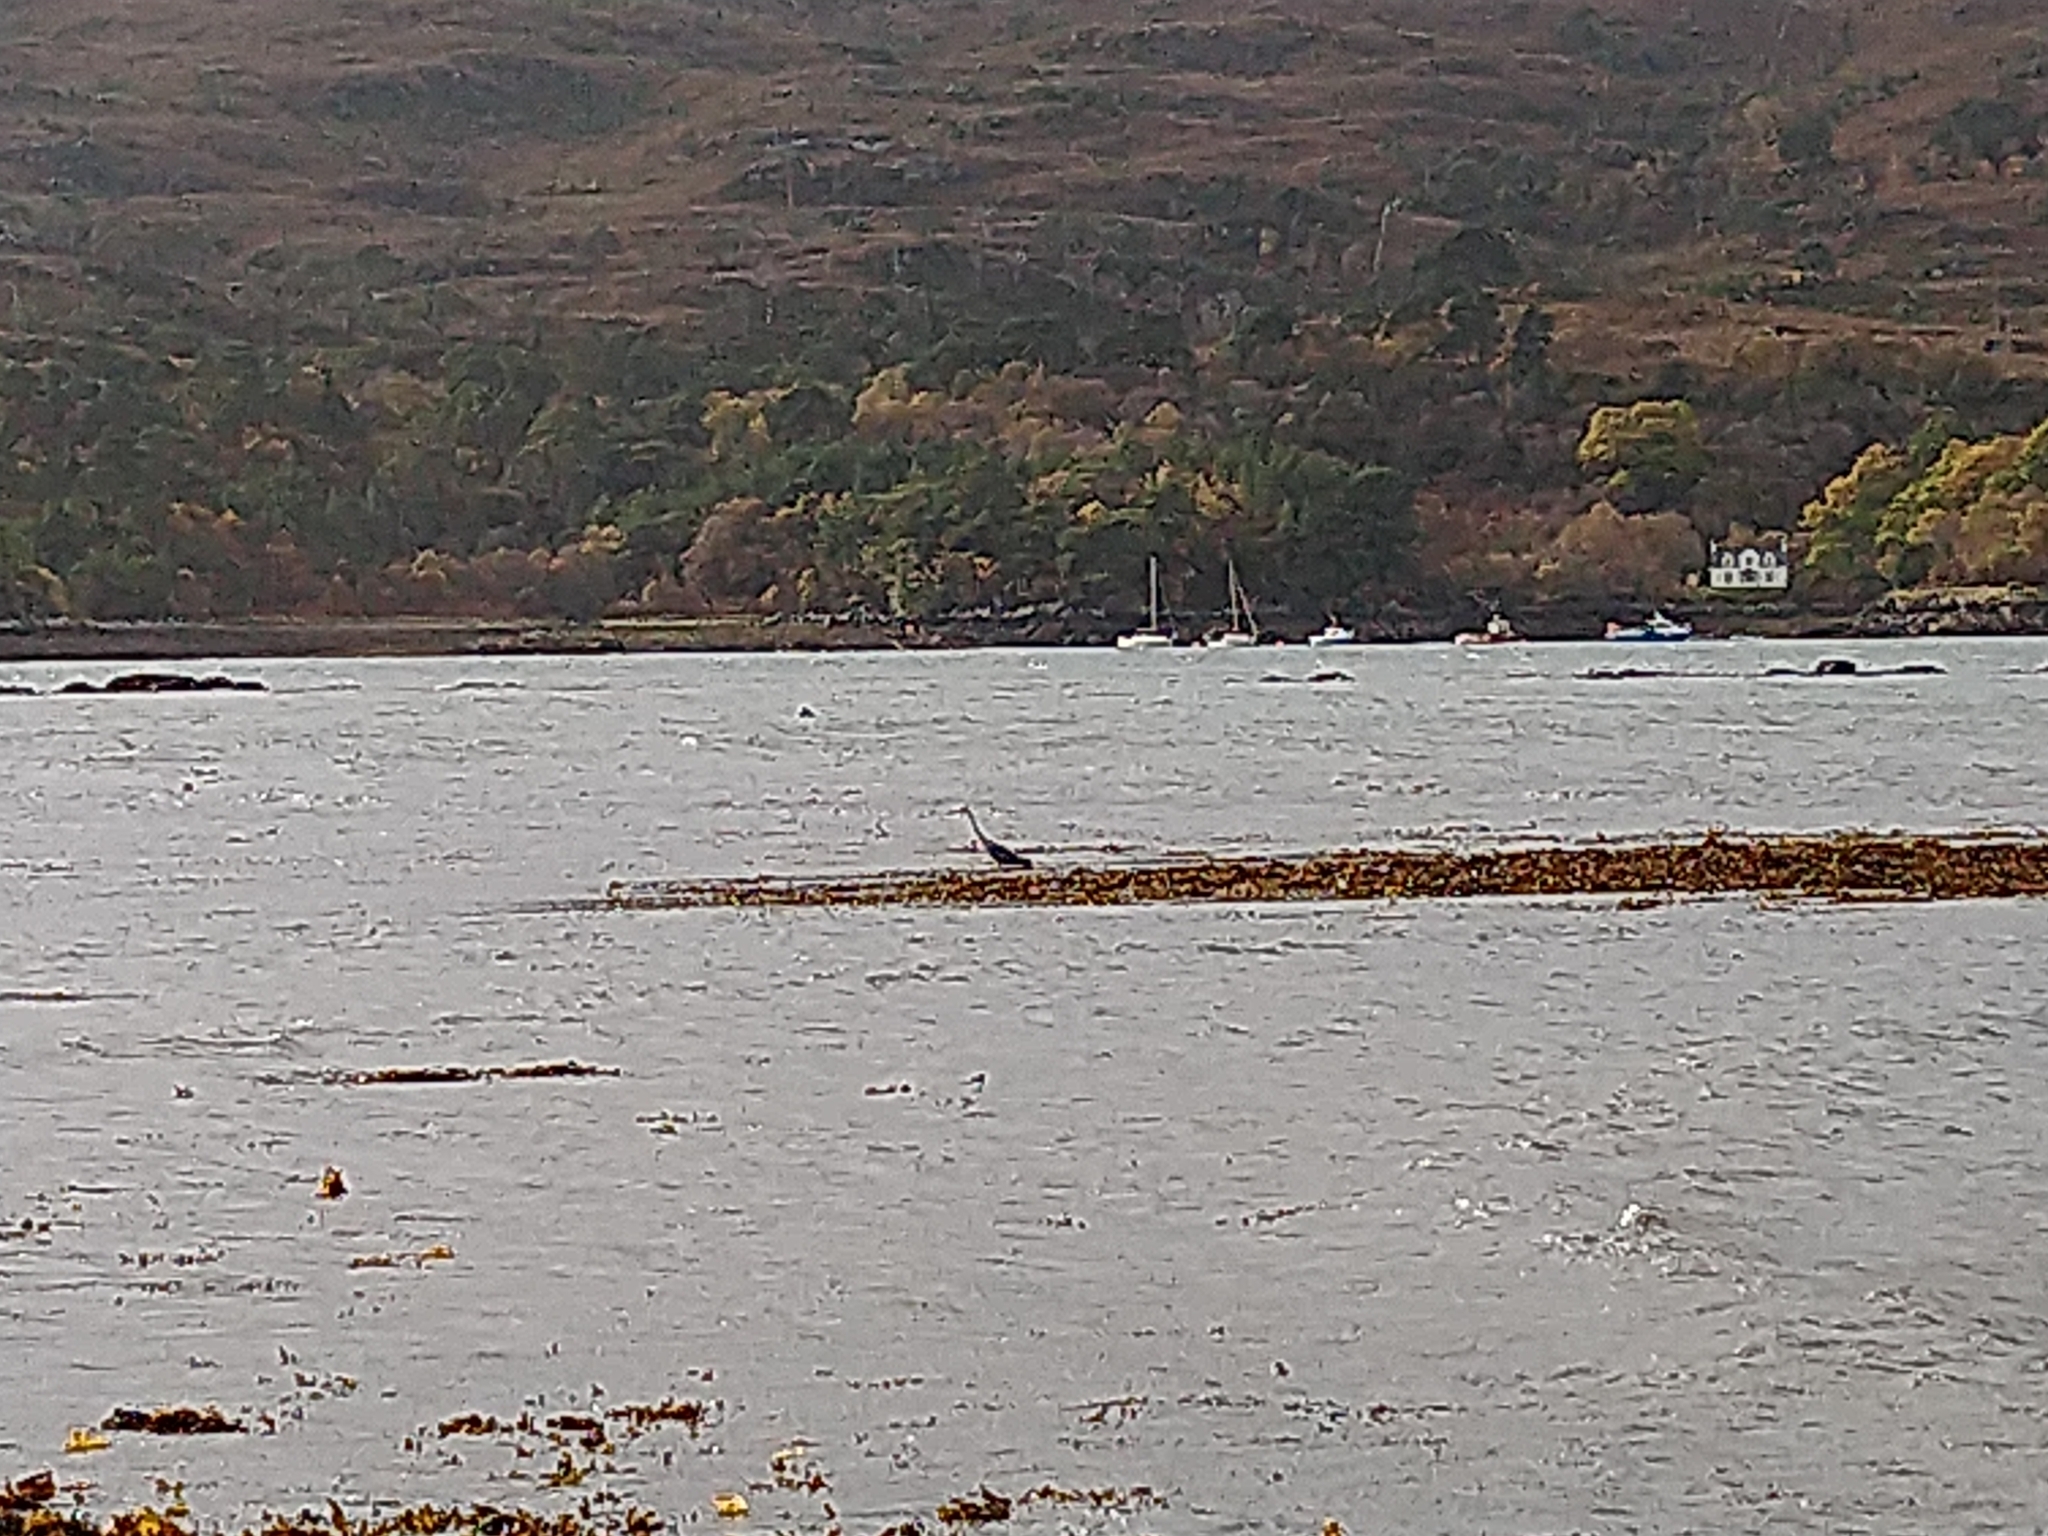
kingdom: Animalia
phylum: Chordata
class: Aves
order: Pelecaniformes
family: Ardeidae
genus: Ardea
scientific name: Ardea cinerea
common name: Grey heron
